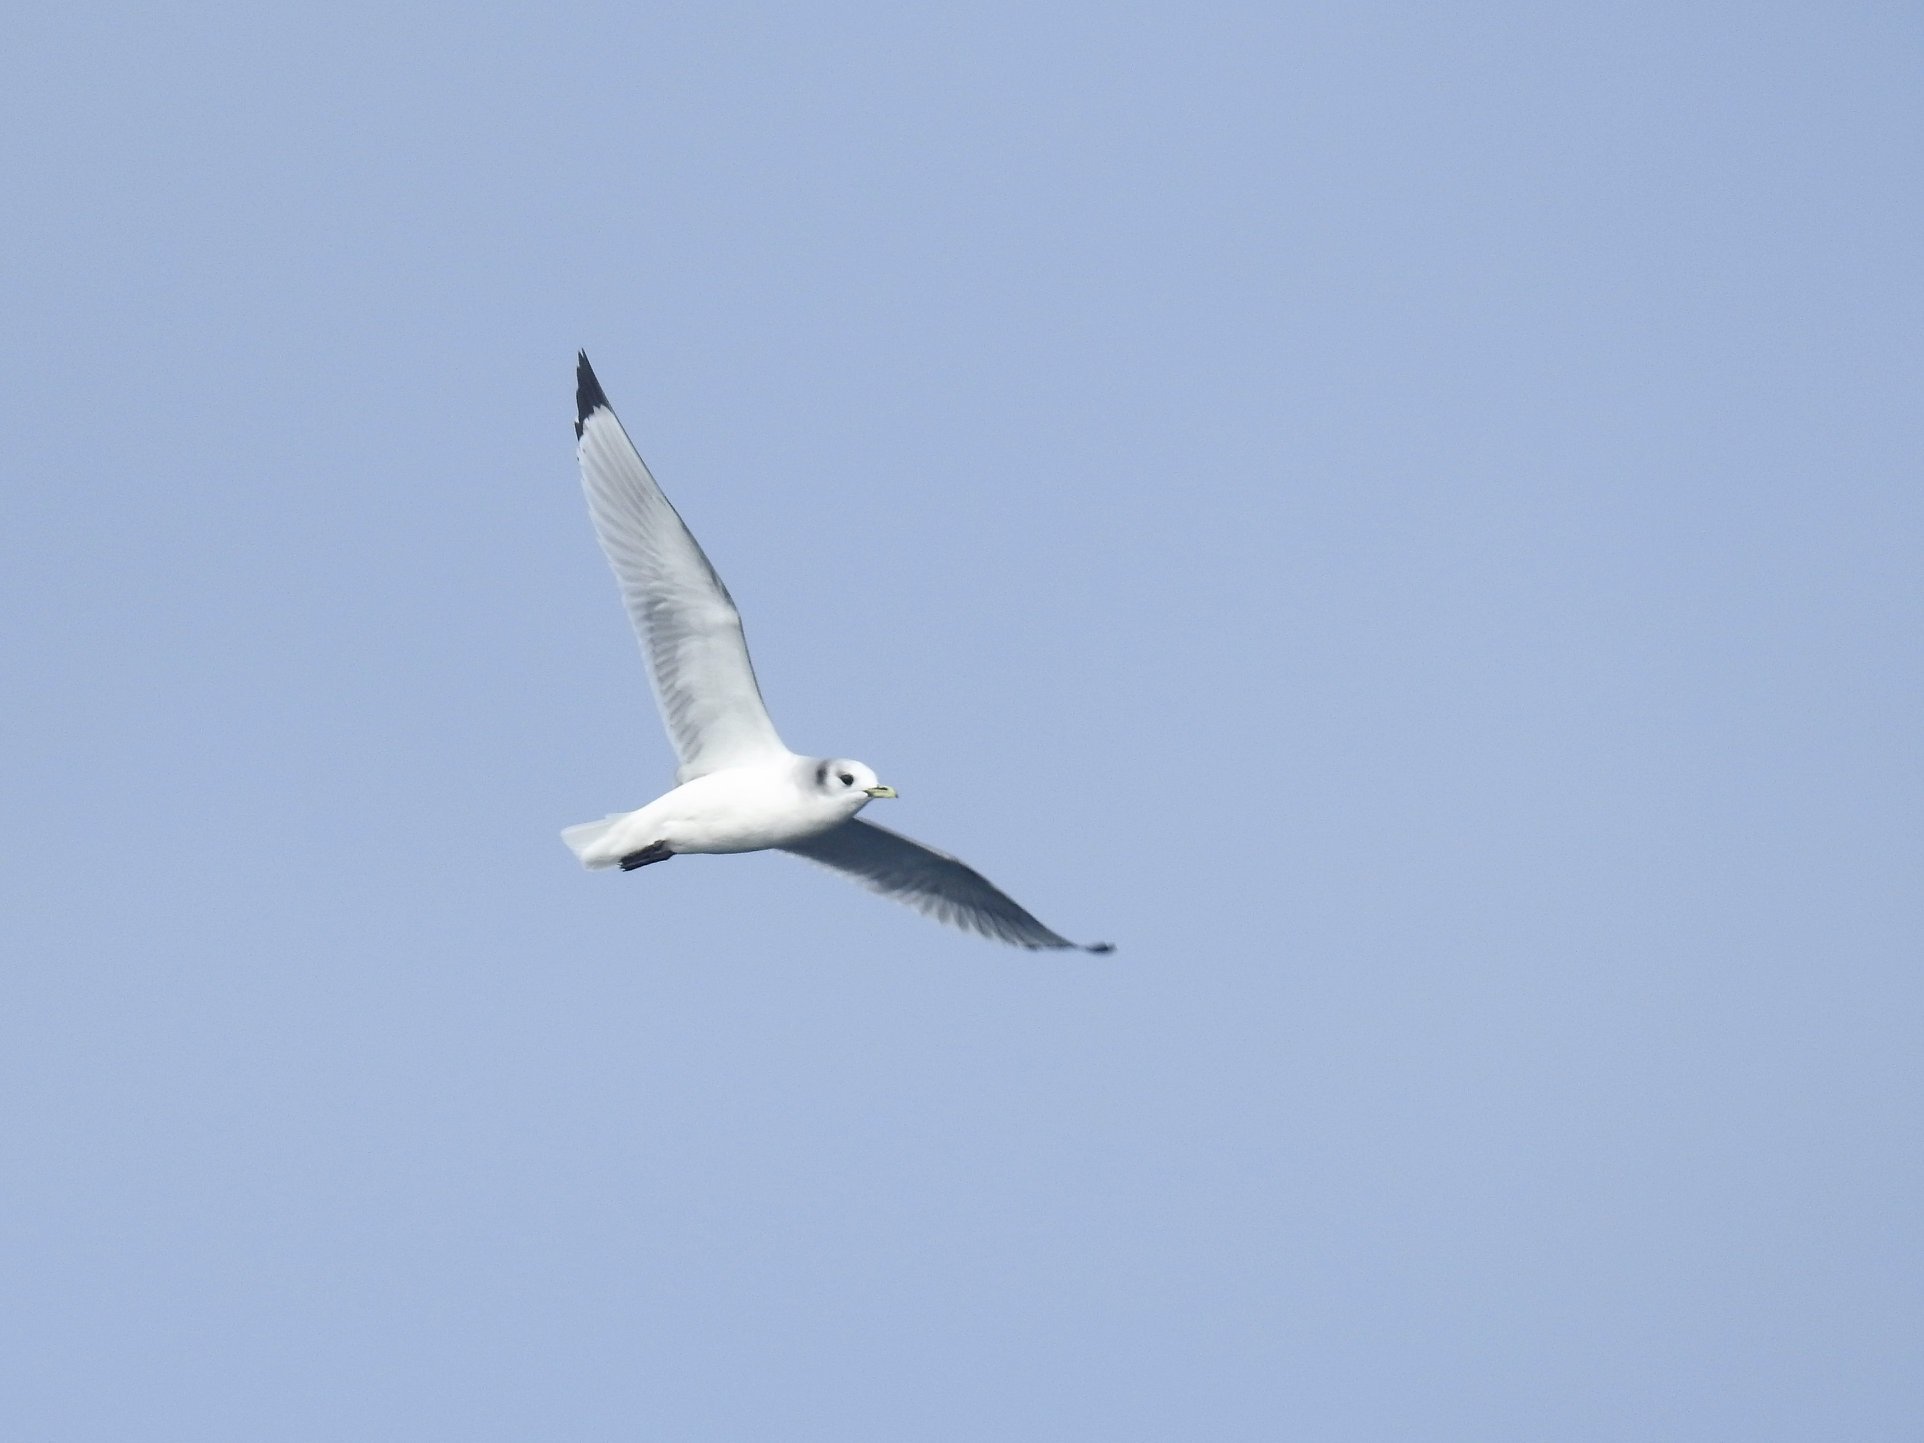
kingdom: Animalia
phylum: Chordata
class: Aves
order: Charadriiformes
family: Laridae
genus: Rissa
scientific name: Rissa tridactyla
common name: Black-legged kittiwake
